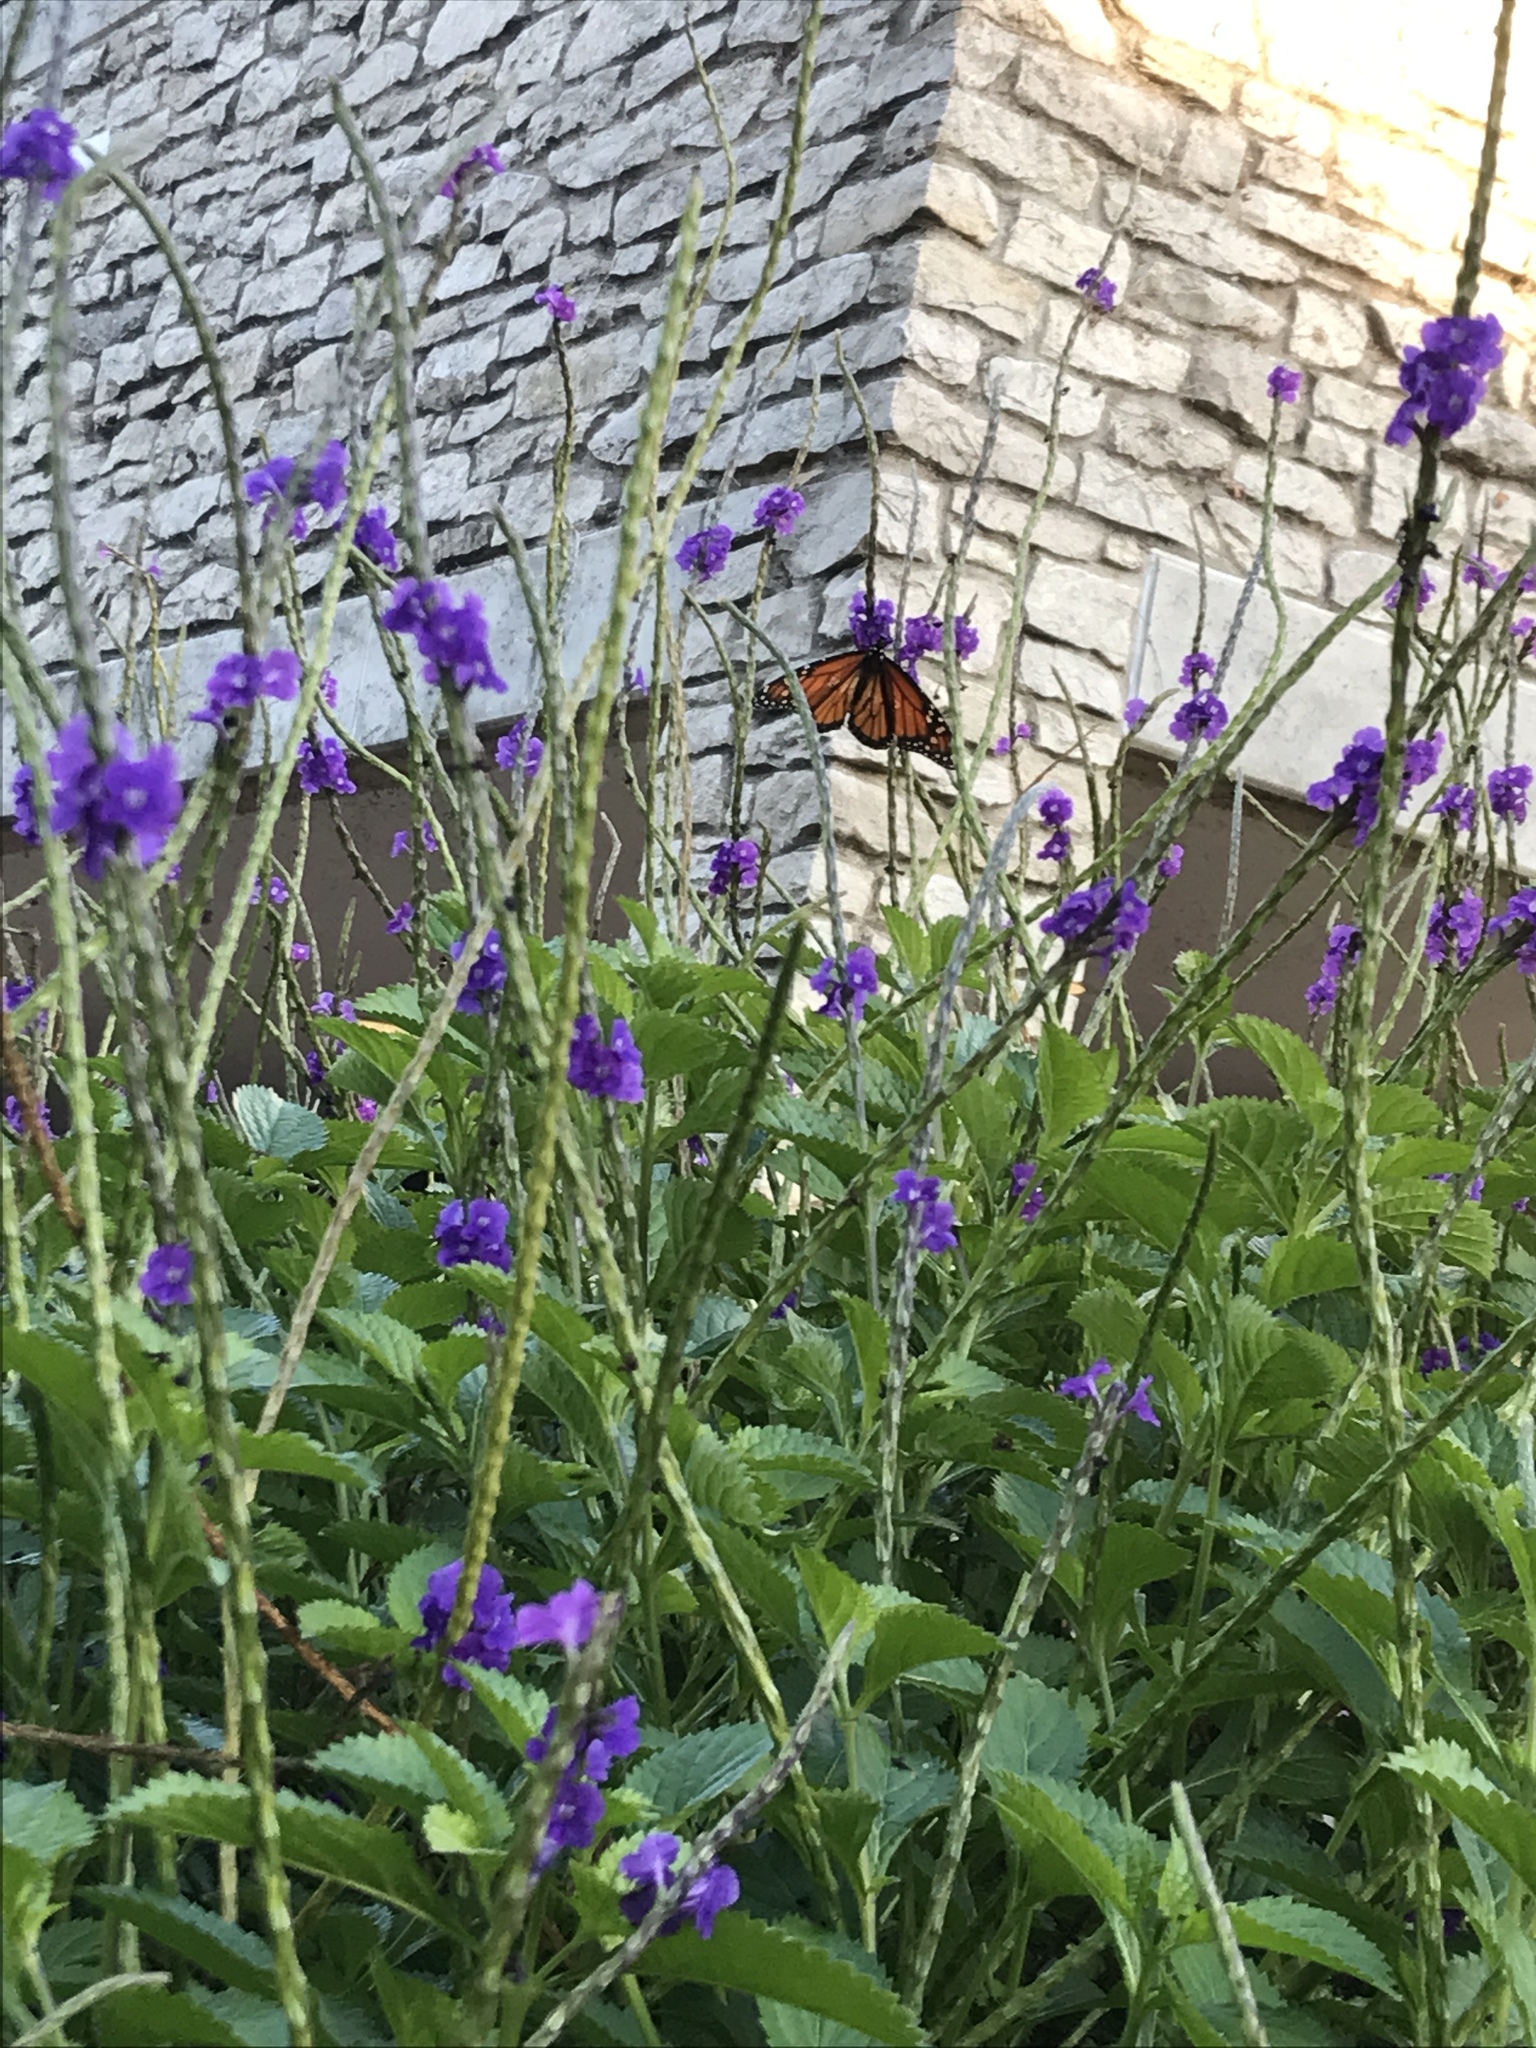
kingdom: Animalia
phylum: Arthropoda
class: Insecta
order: Lepidoptera
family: Nymphalidae
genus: Danaus
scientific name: Danaus plexippus
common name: Monarch
